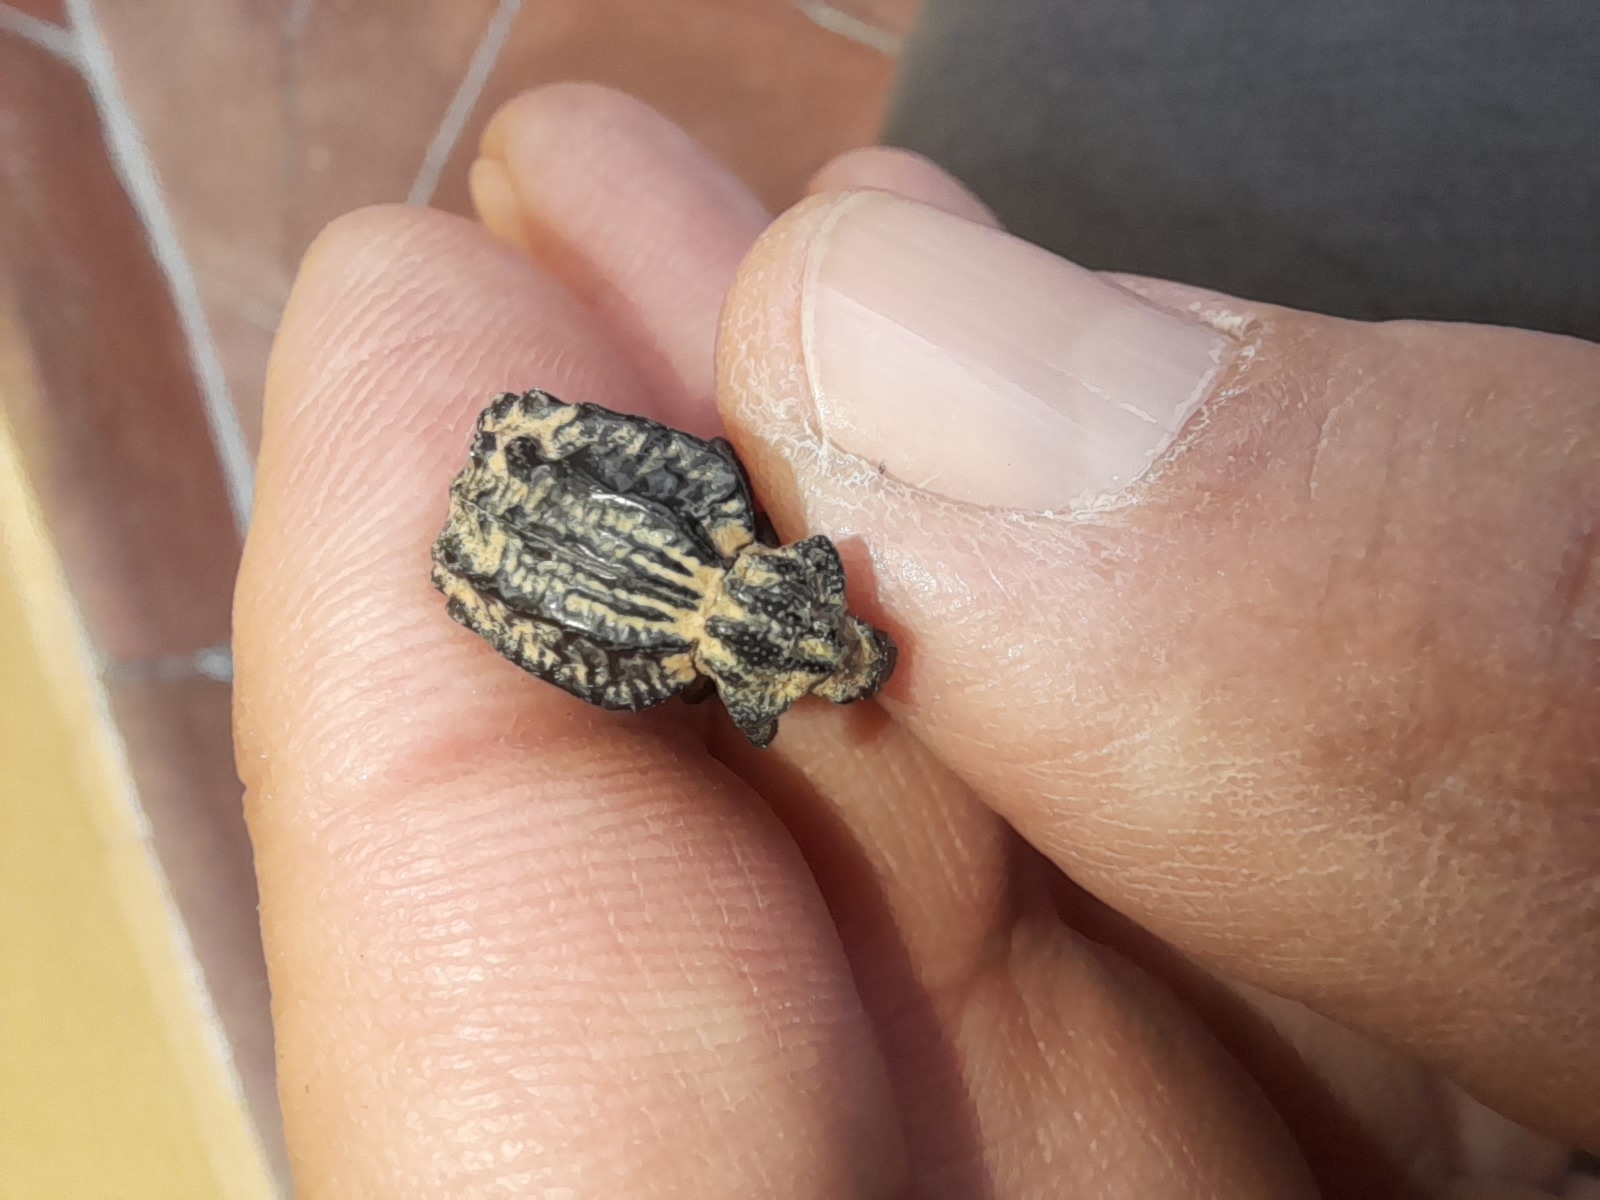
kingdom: Animalia
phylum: Arthropoda
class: Insecta
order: Coleoptera
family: Brachyceridae
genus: Brachycerus
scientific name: Brachycerus undatus
